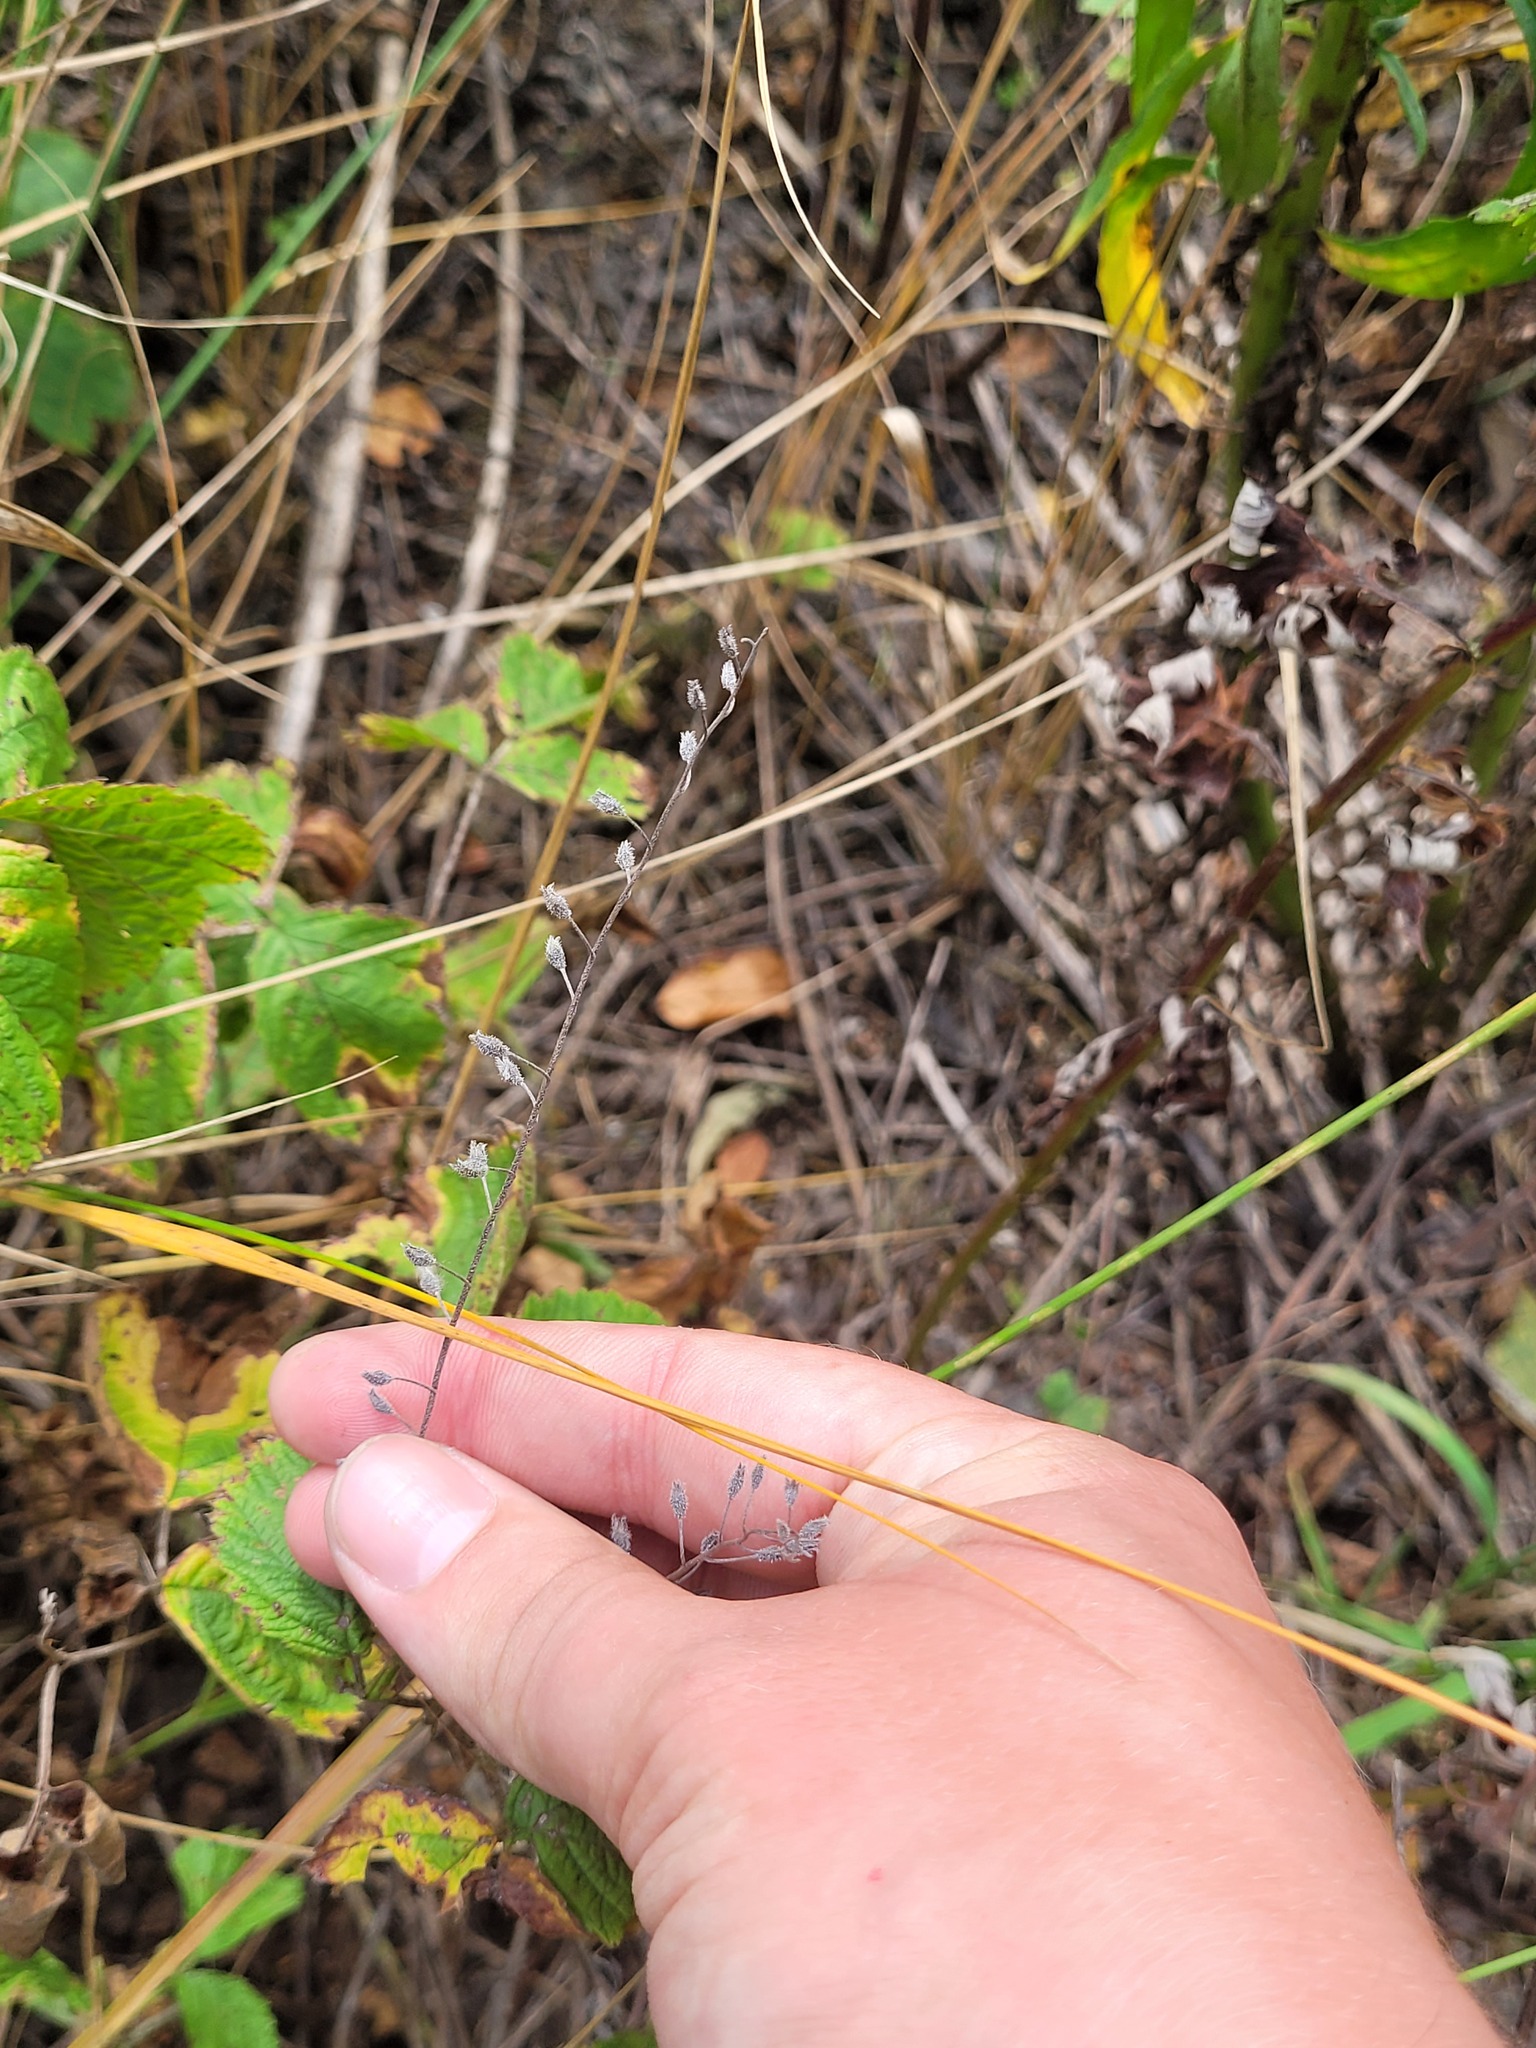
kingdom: Plantae
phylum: Tracheophyta
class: Magnoliopsida
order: Boraginales
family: Boraginaceae
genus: Myosotis
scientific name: Myosotis arvensis
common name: Field forget-me-not
